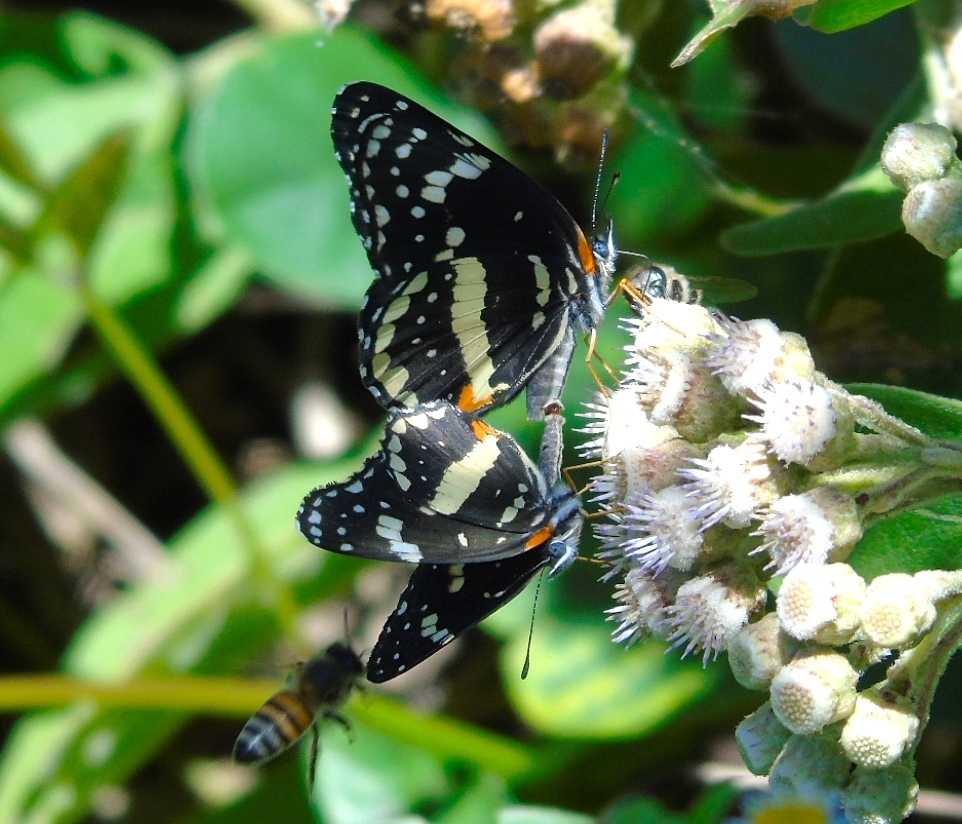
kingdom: Animalia
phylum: Arthropoda
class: Insecta
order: Lepidoptera
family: Nymphalidae
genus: Chlosyne
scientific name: Chlosyne lacinia
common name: Bordered patch
